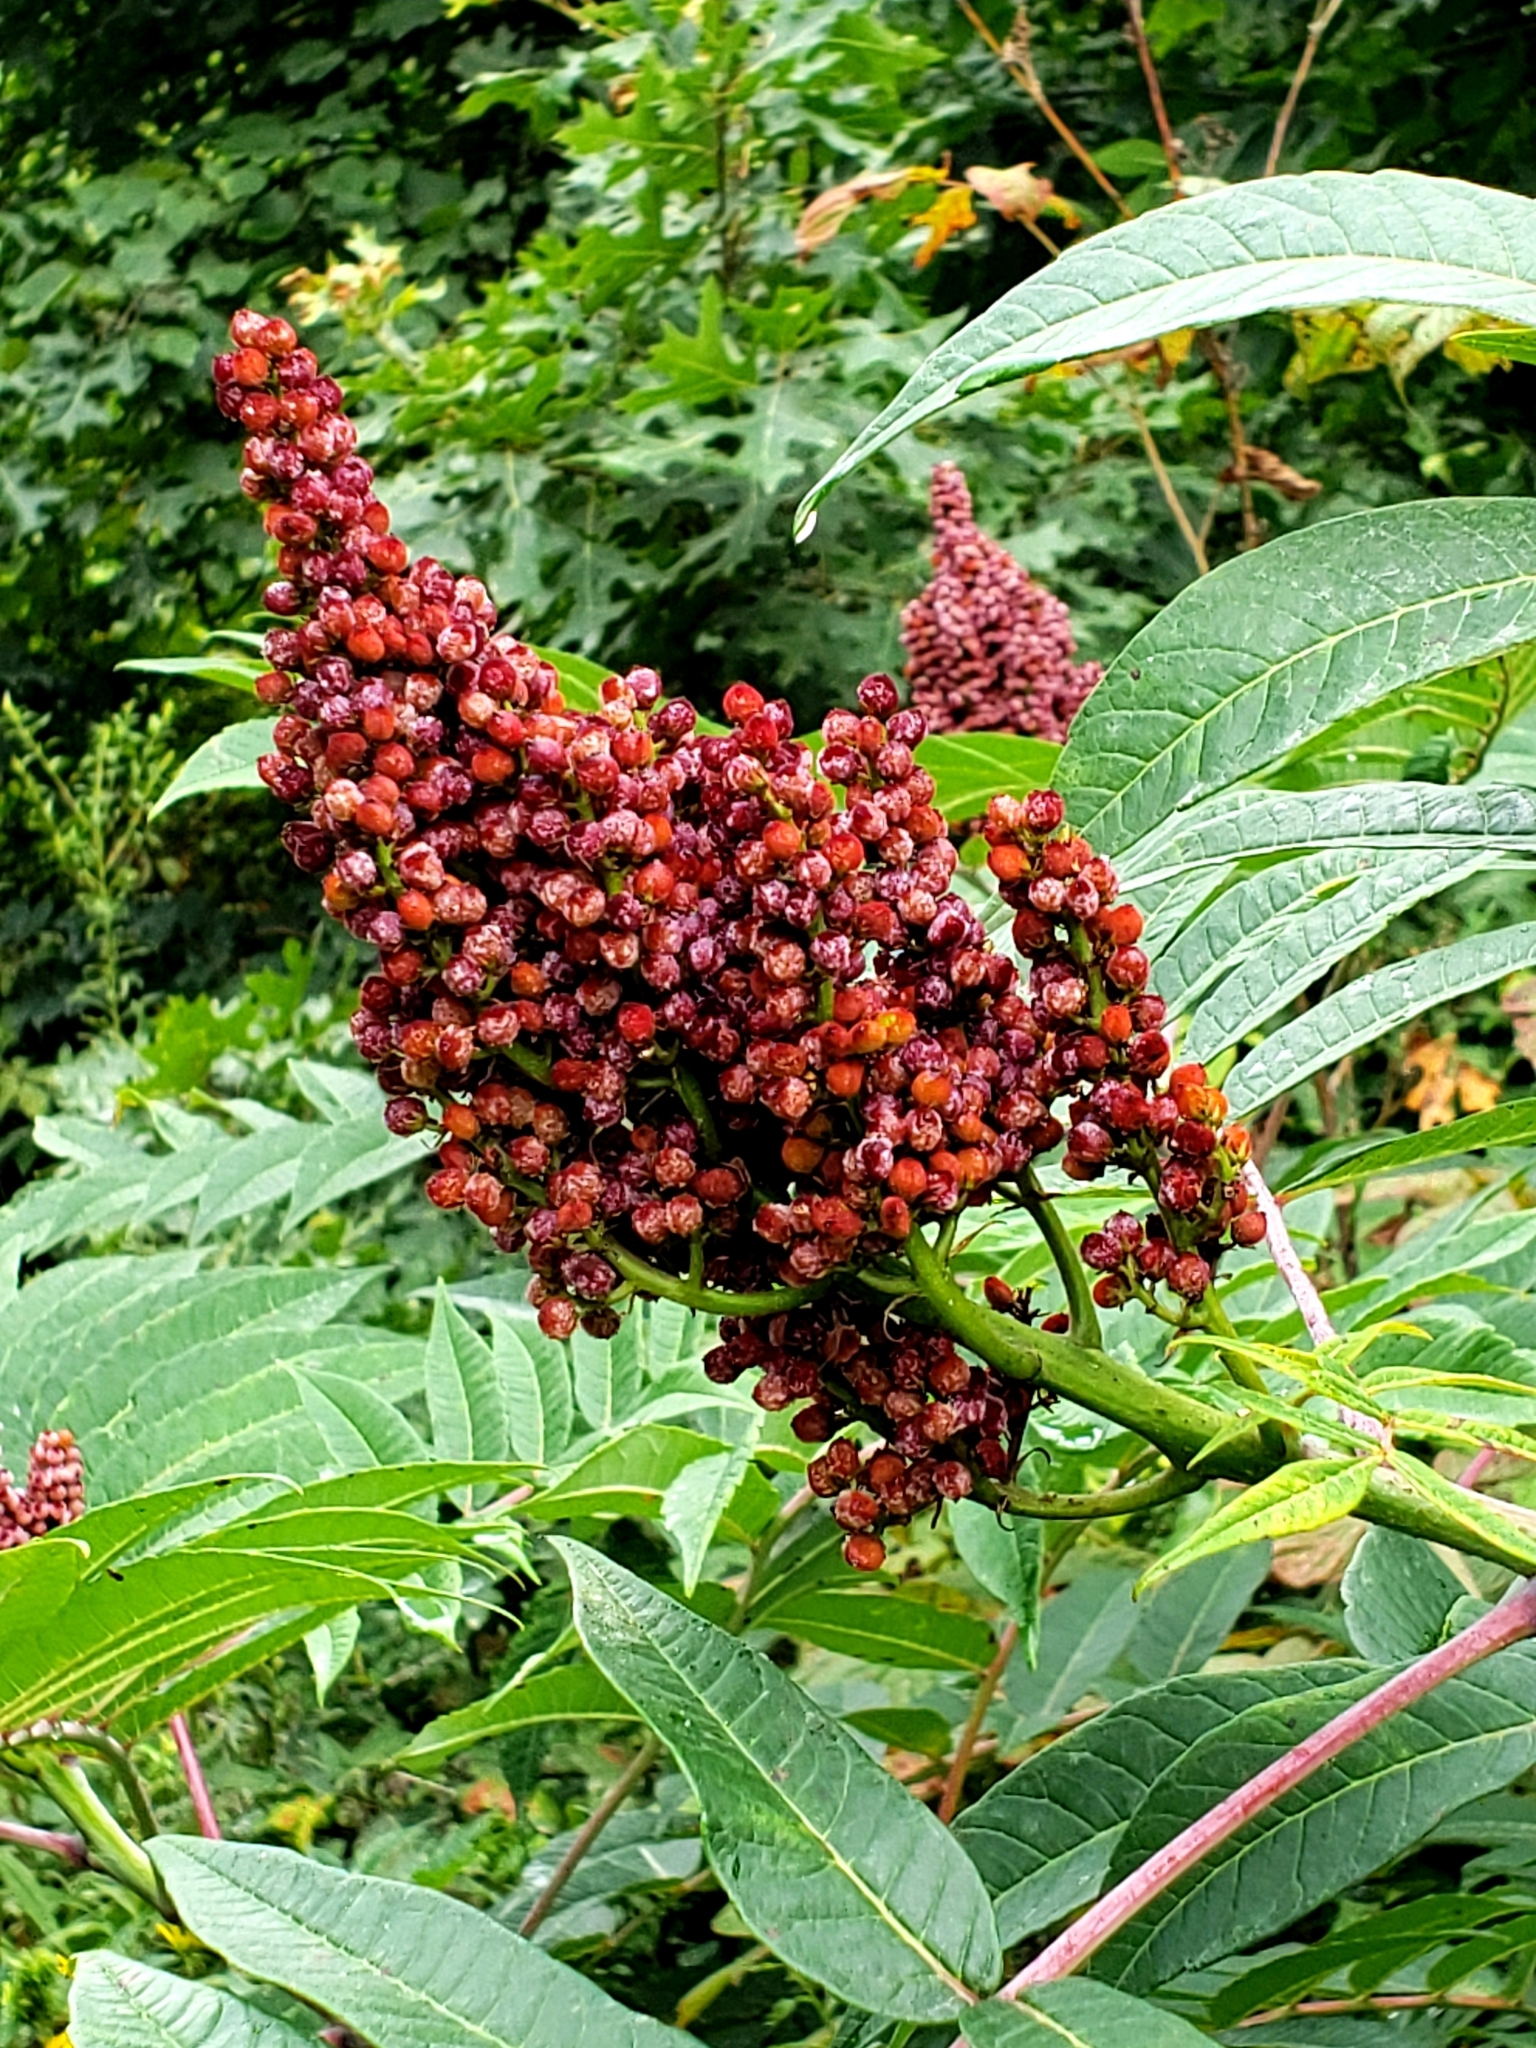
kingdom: Plantae
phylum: Tracheophyta
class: Magnoliopsida
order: Sapindales
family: Anacardiaceae
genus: Rhus
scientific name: Rhus glabra
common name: Scarlet sumac
